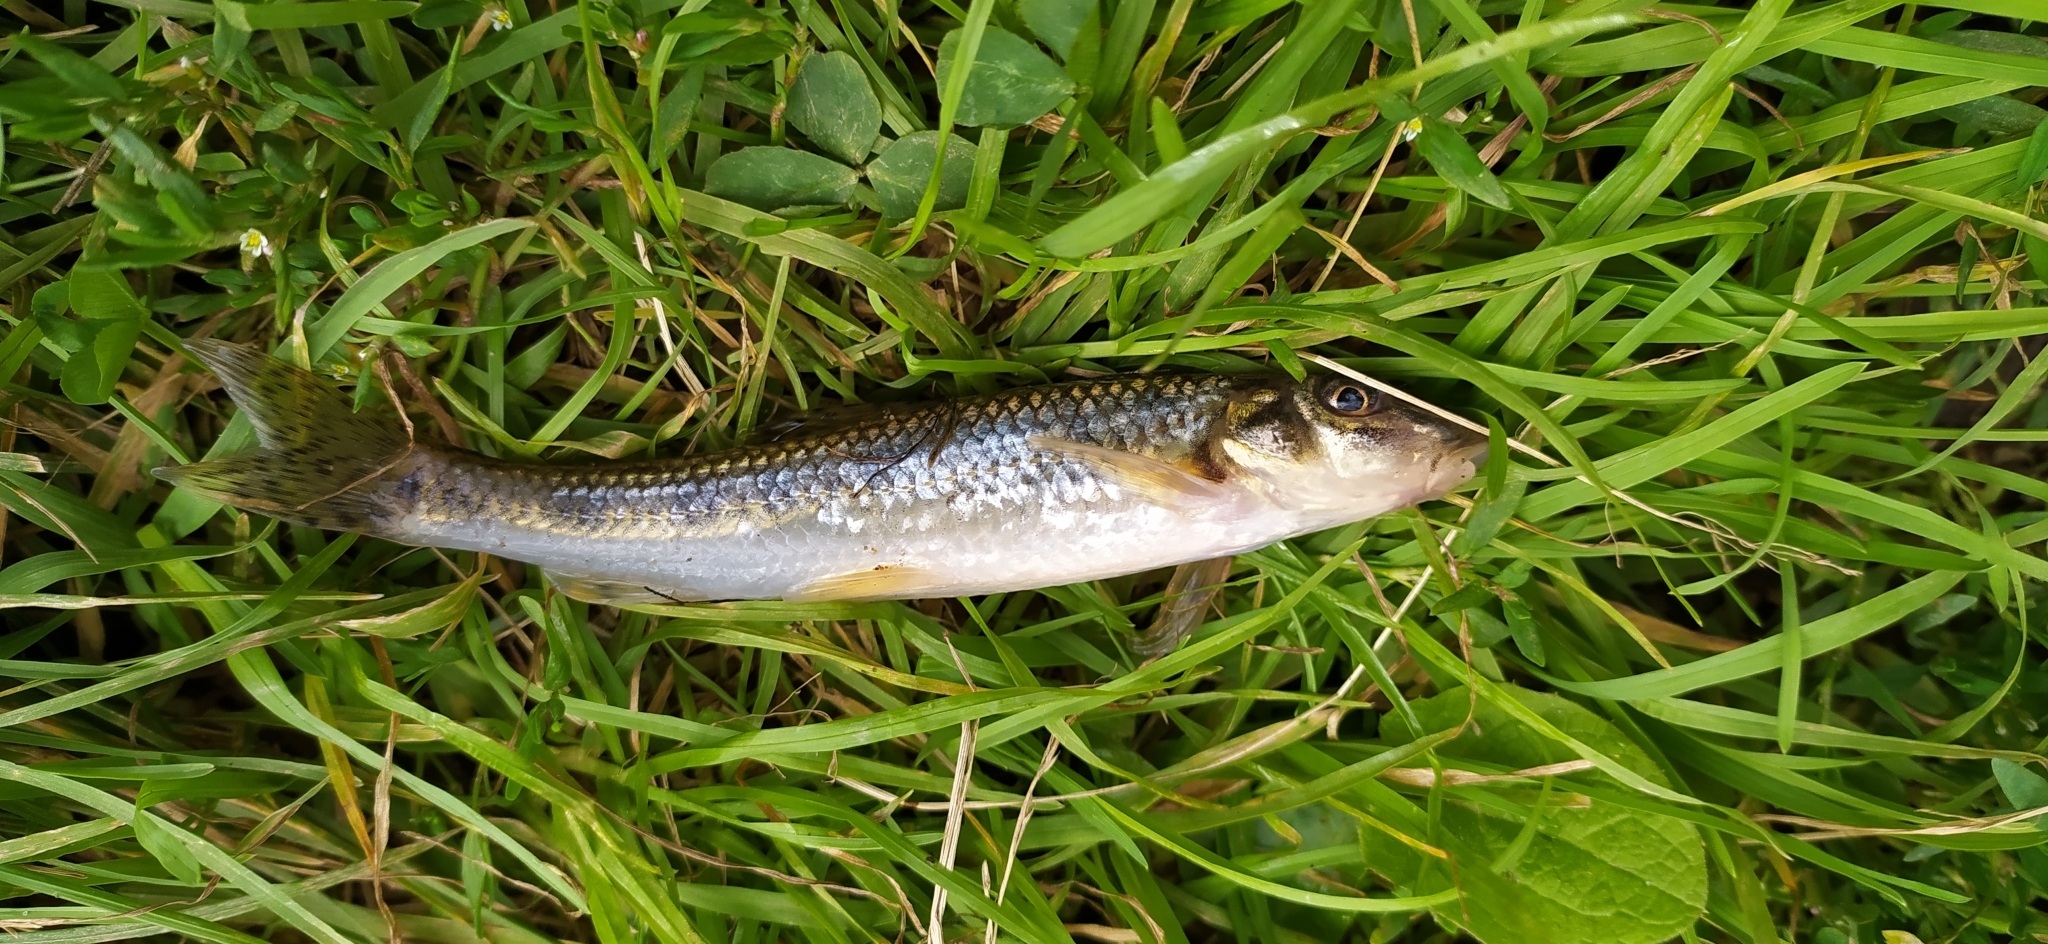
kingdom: Animalia
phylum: Chordata
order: Cypriniformes
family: Cyprinidae
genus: Gobio
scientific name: Gobio volgensis
